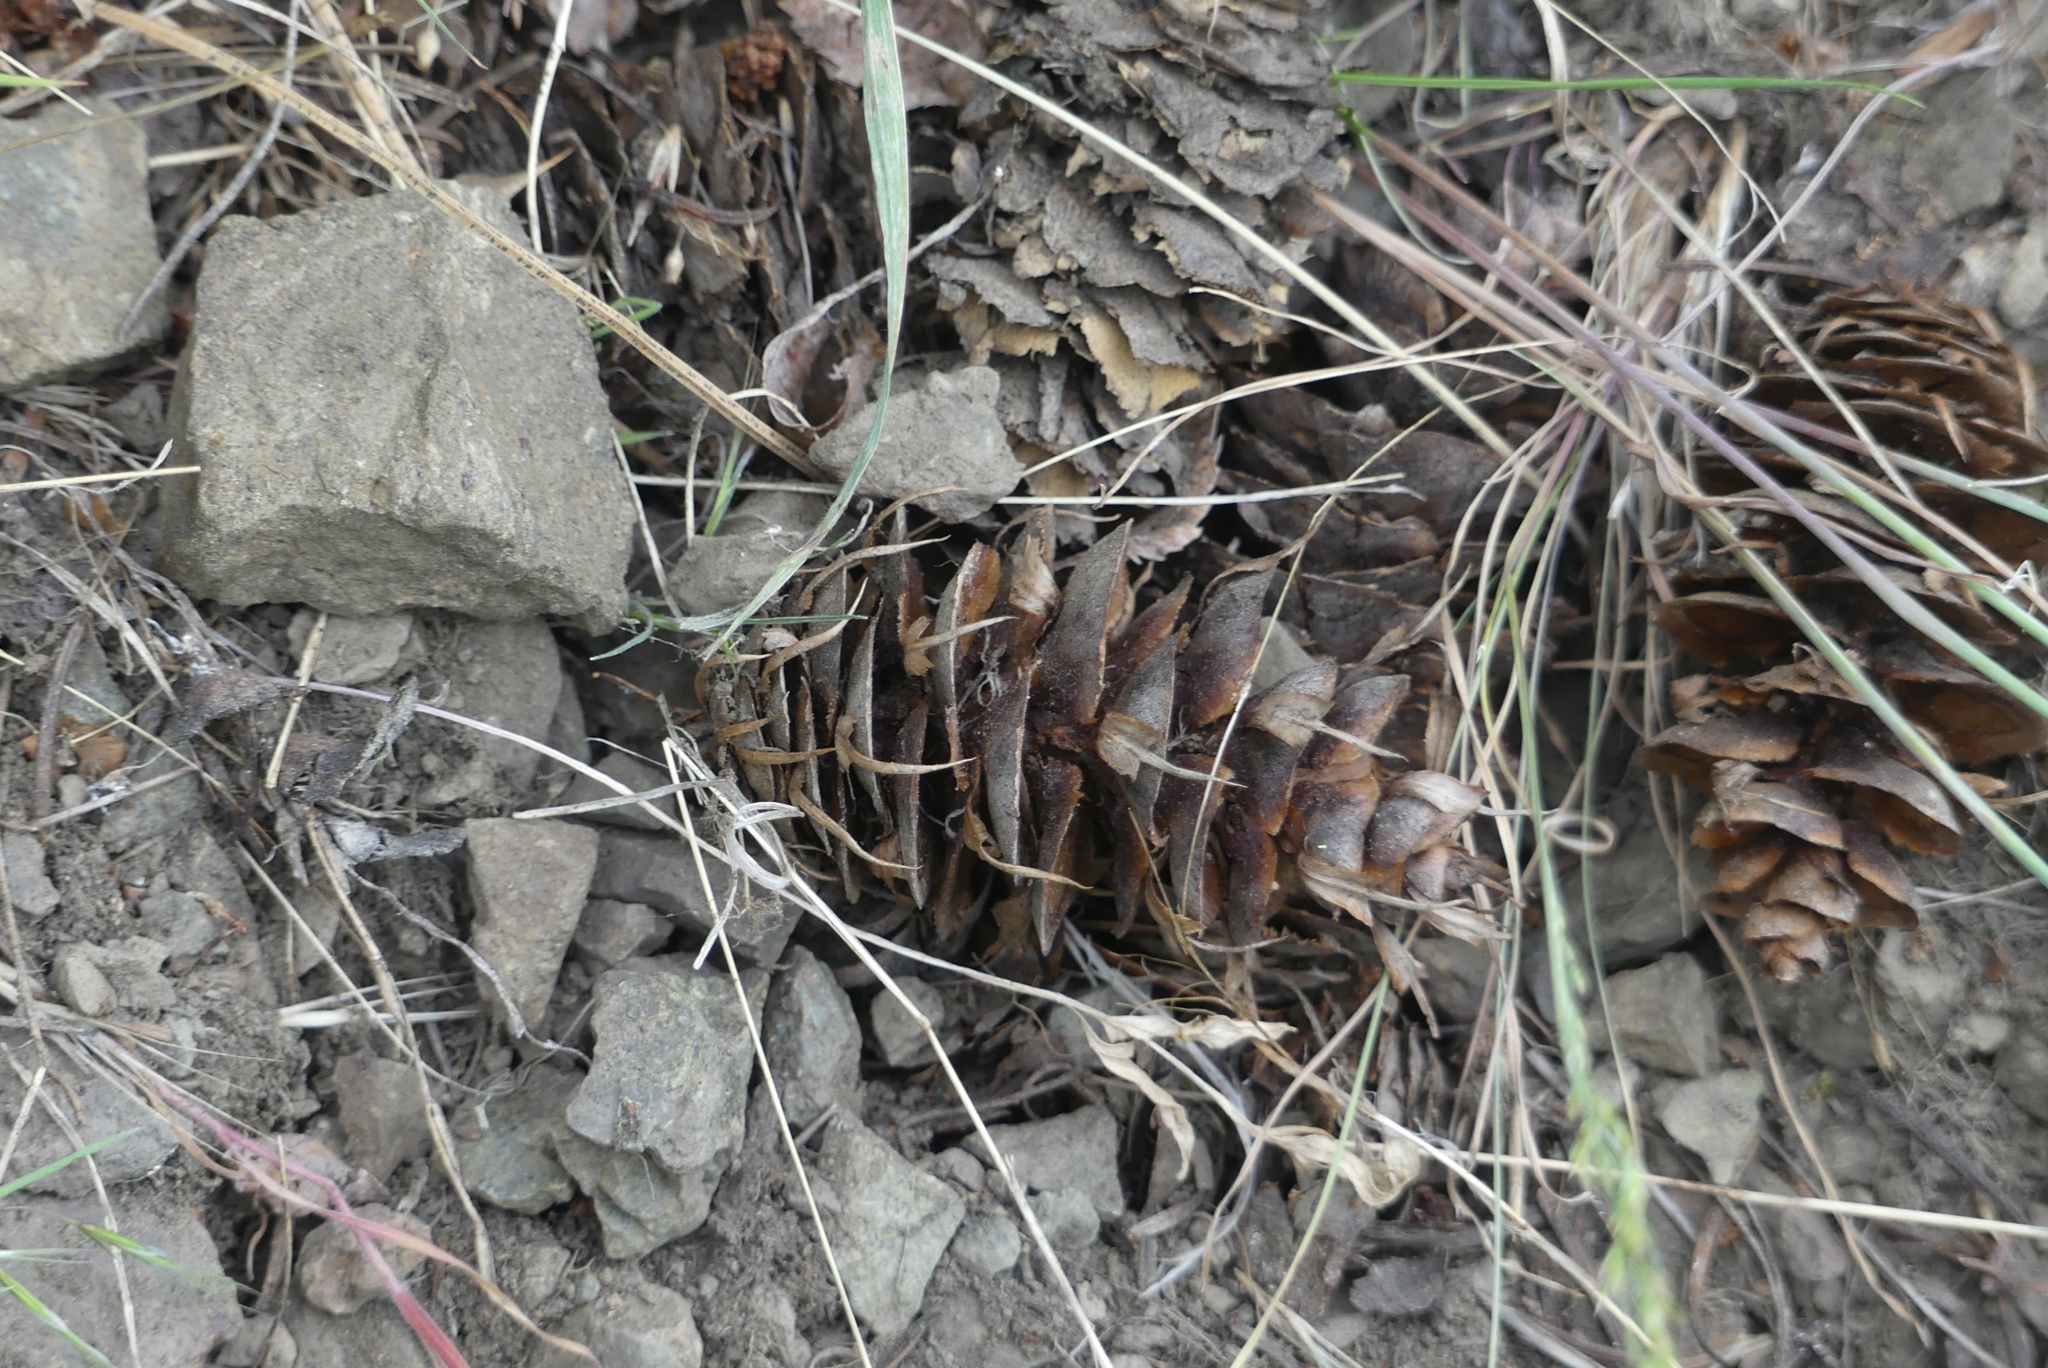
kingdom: Plantae
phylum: Tracheophyta
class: Pinopsida
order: Pinales
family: Pinaceae
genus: Pseudotsuga
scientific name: Pseudotsuga menziesii
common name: Douglas fir
